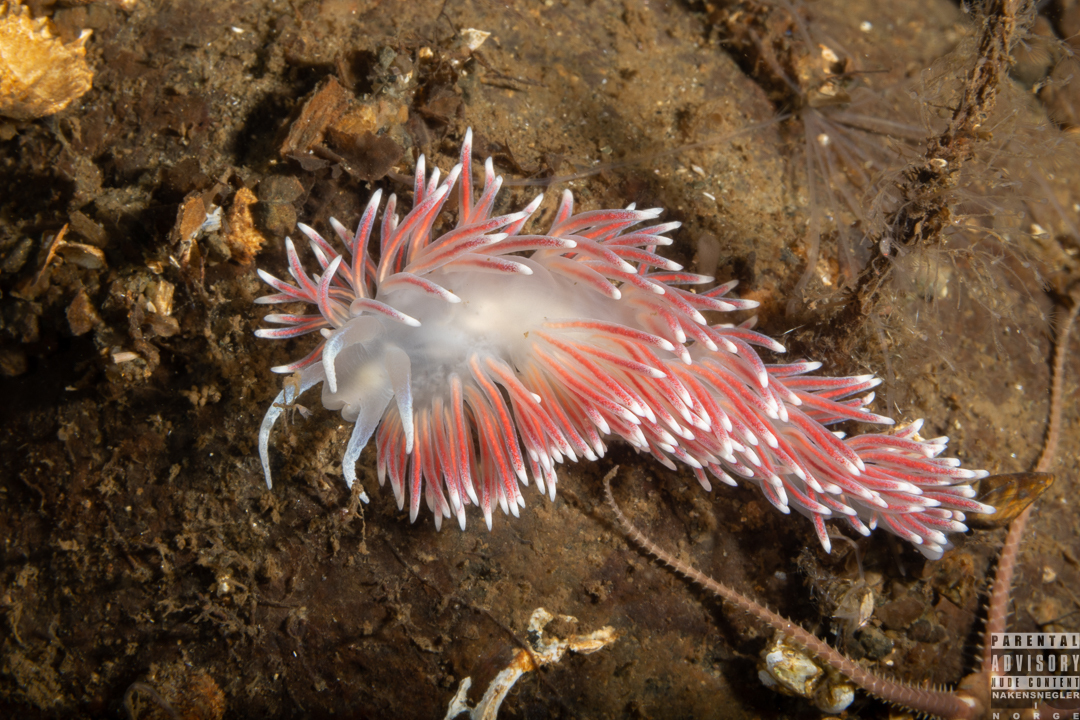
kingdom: Animalia
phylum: Mollusca
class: Gastropoda
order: Nudibranchia
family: Flabellinidae
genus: Carronella
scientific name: Carronella pellucida
